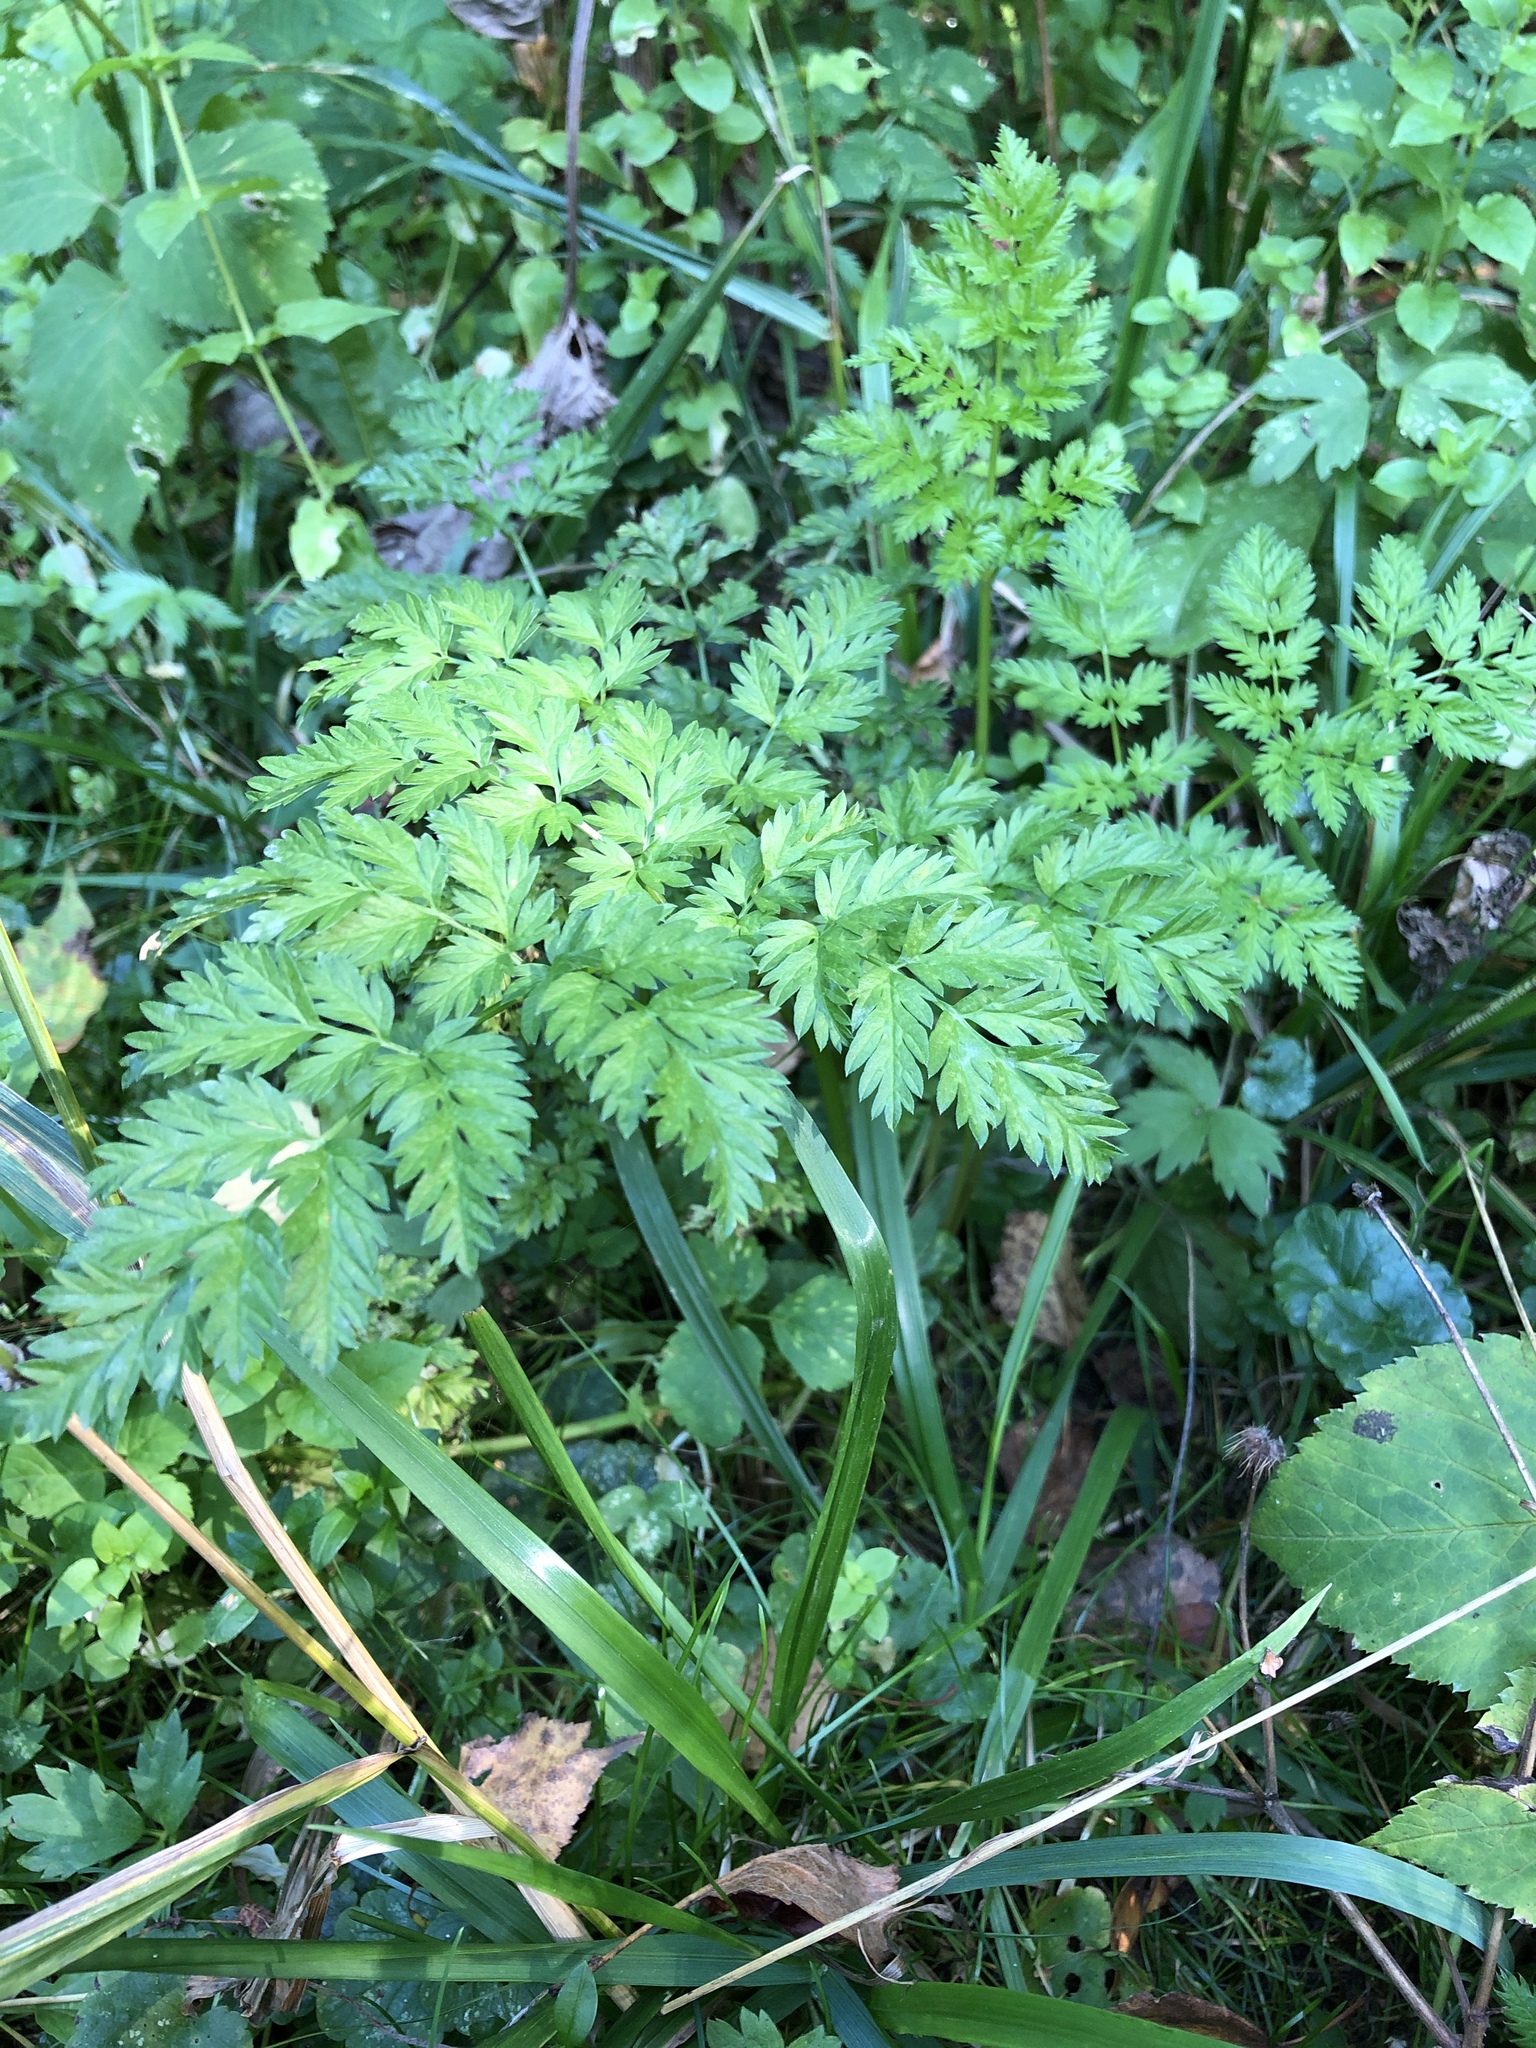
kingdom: Plantae
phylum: Tracheophyta
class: Magnoliopsida
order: Apiales
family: Apiaceae
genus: Anthriscus
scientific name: Anthriscus sylvestris
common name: Cow parsley
